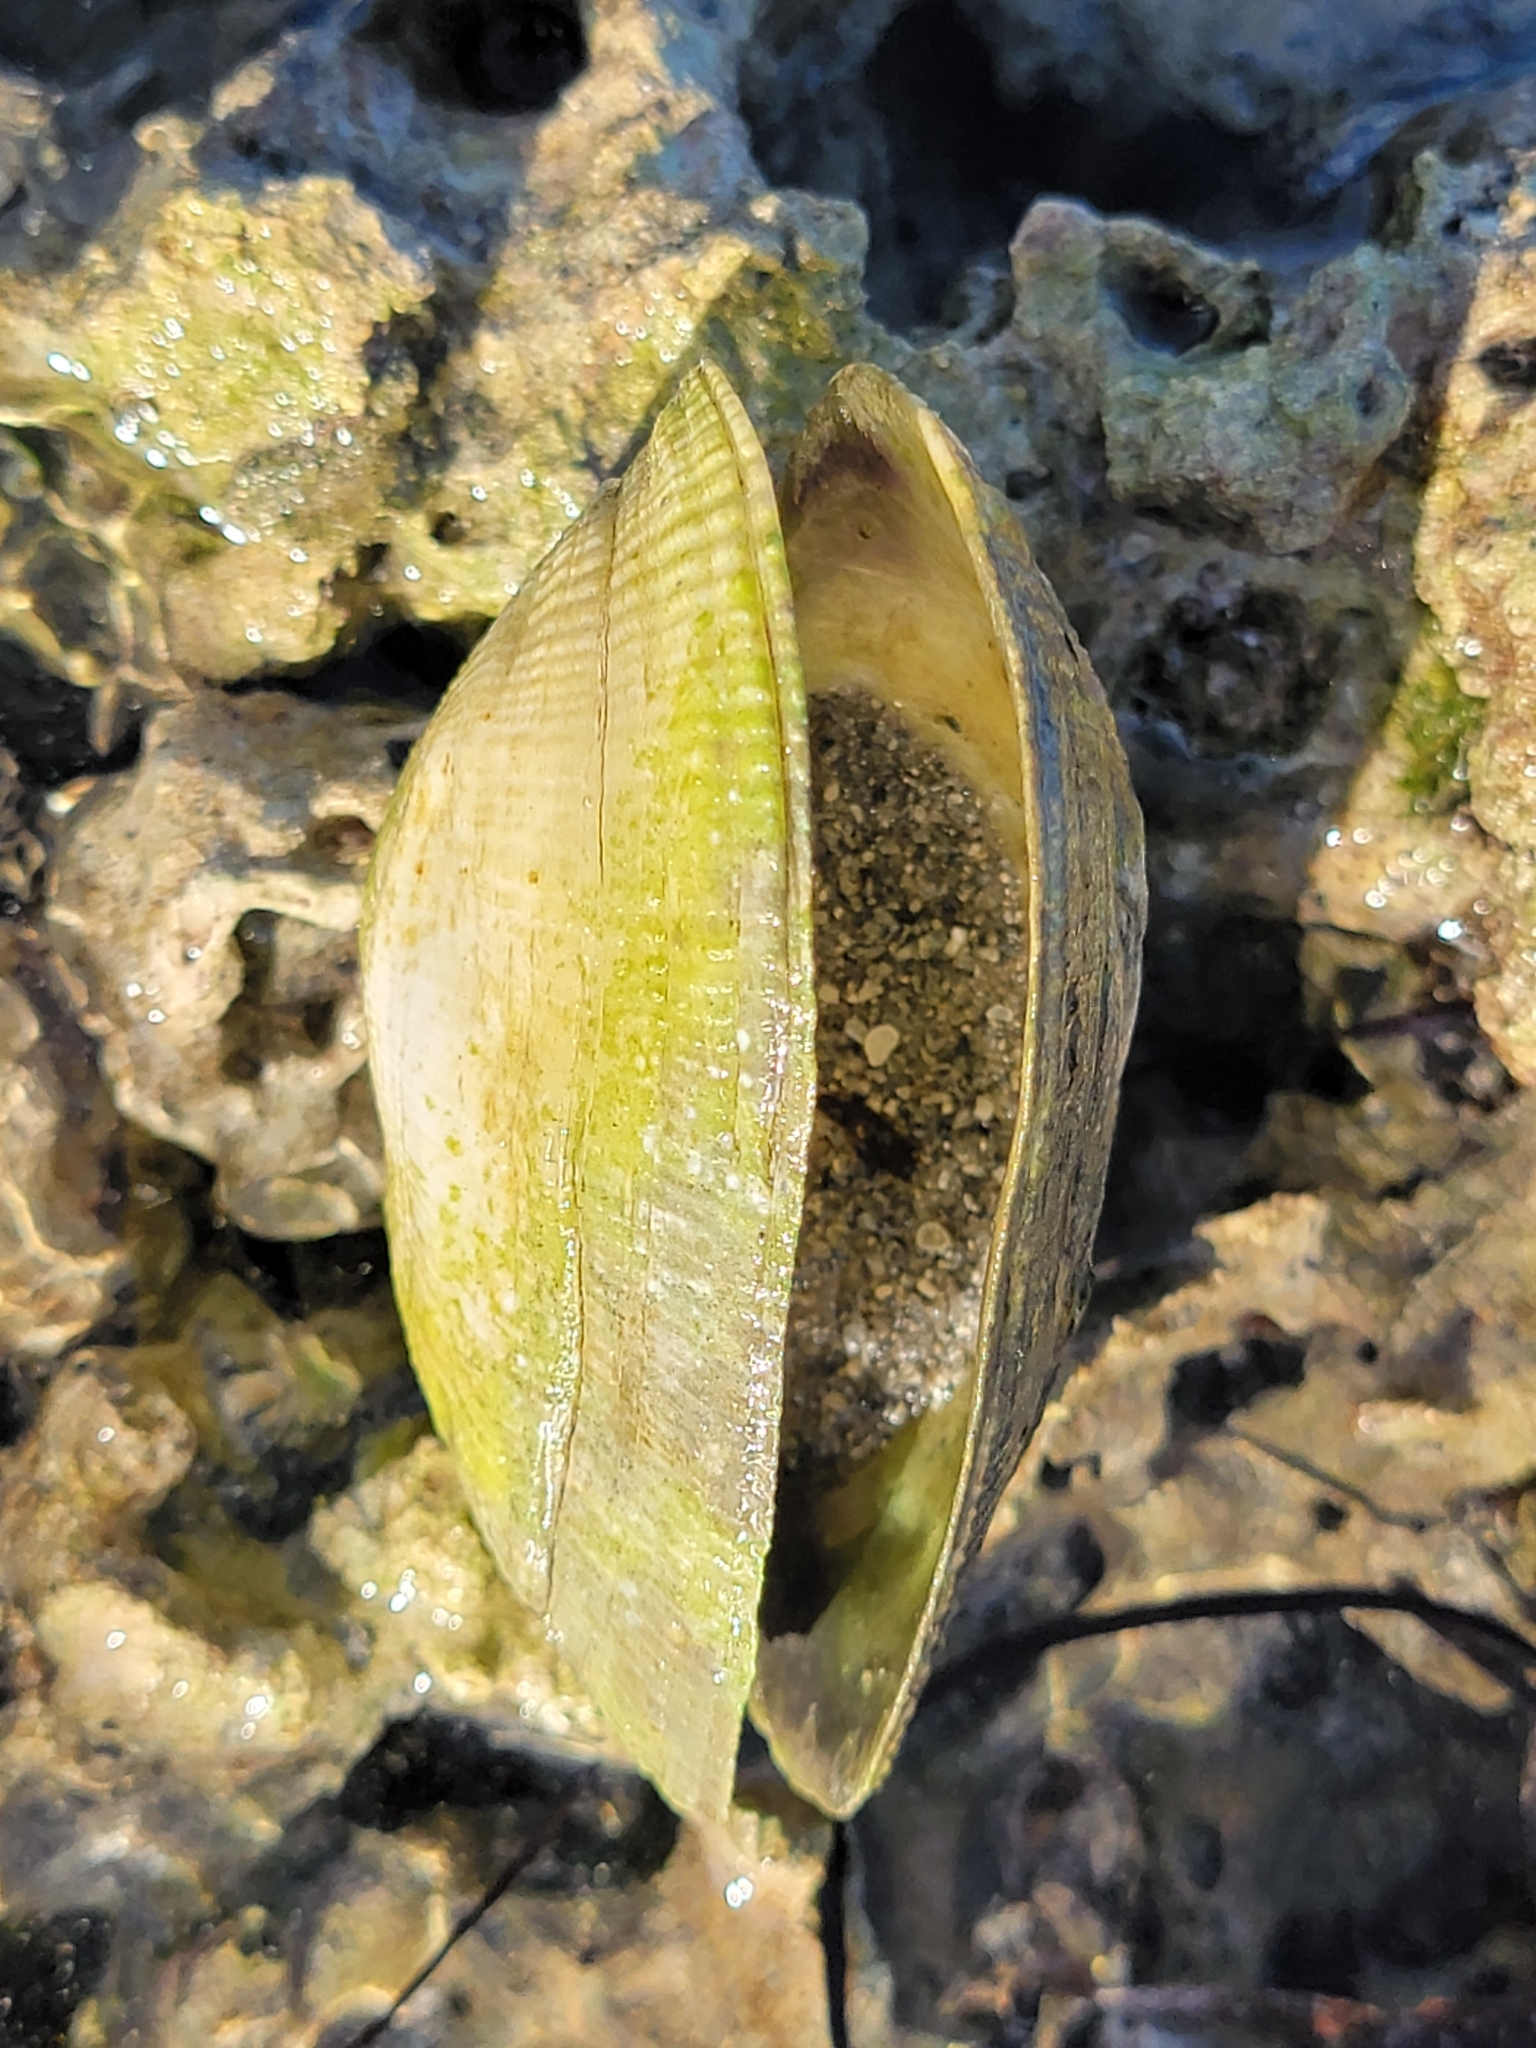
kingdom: Animalia
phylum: Mollusca
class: Bivalvia
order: Cardiida
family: Psammobiidae
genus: Asaphis
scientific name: Asaphis deflorata
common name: Gaudy asaphis
